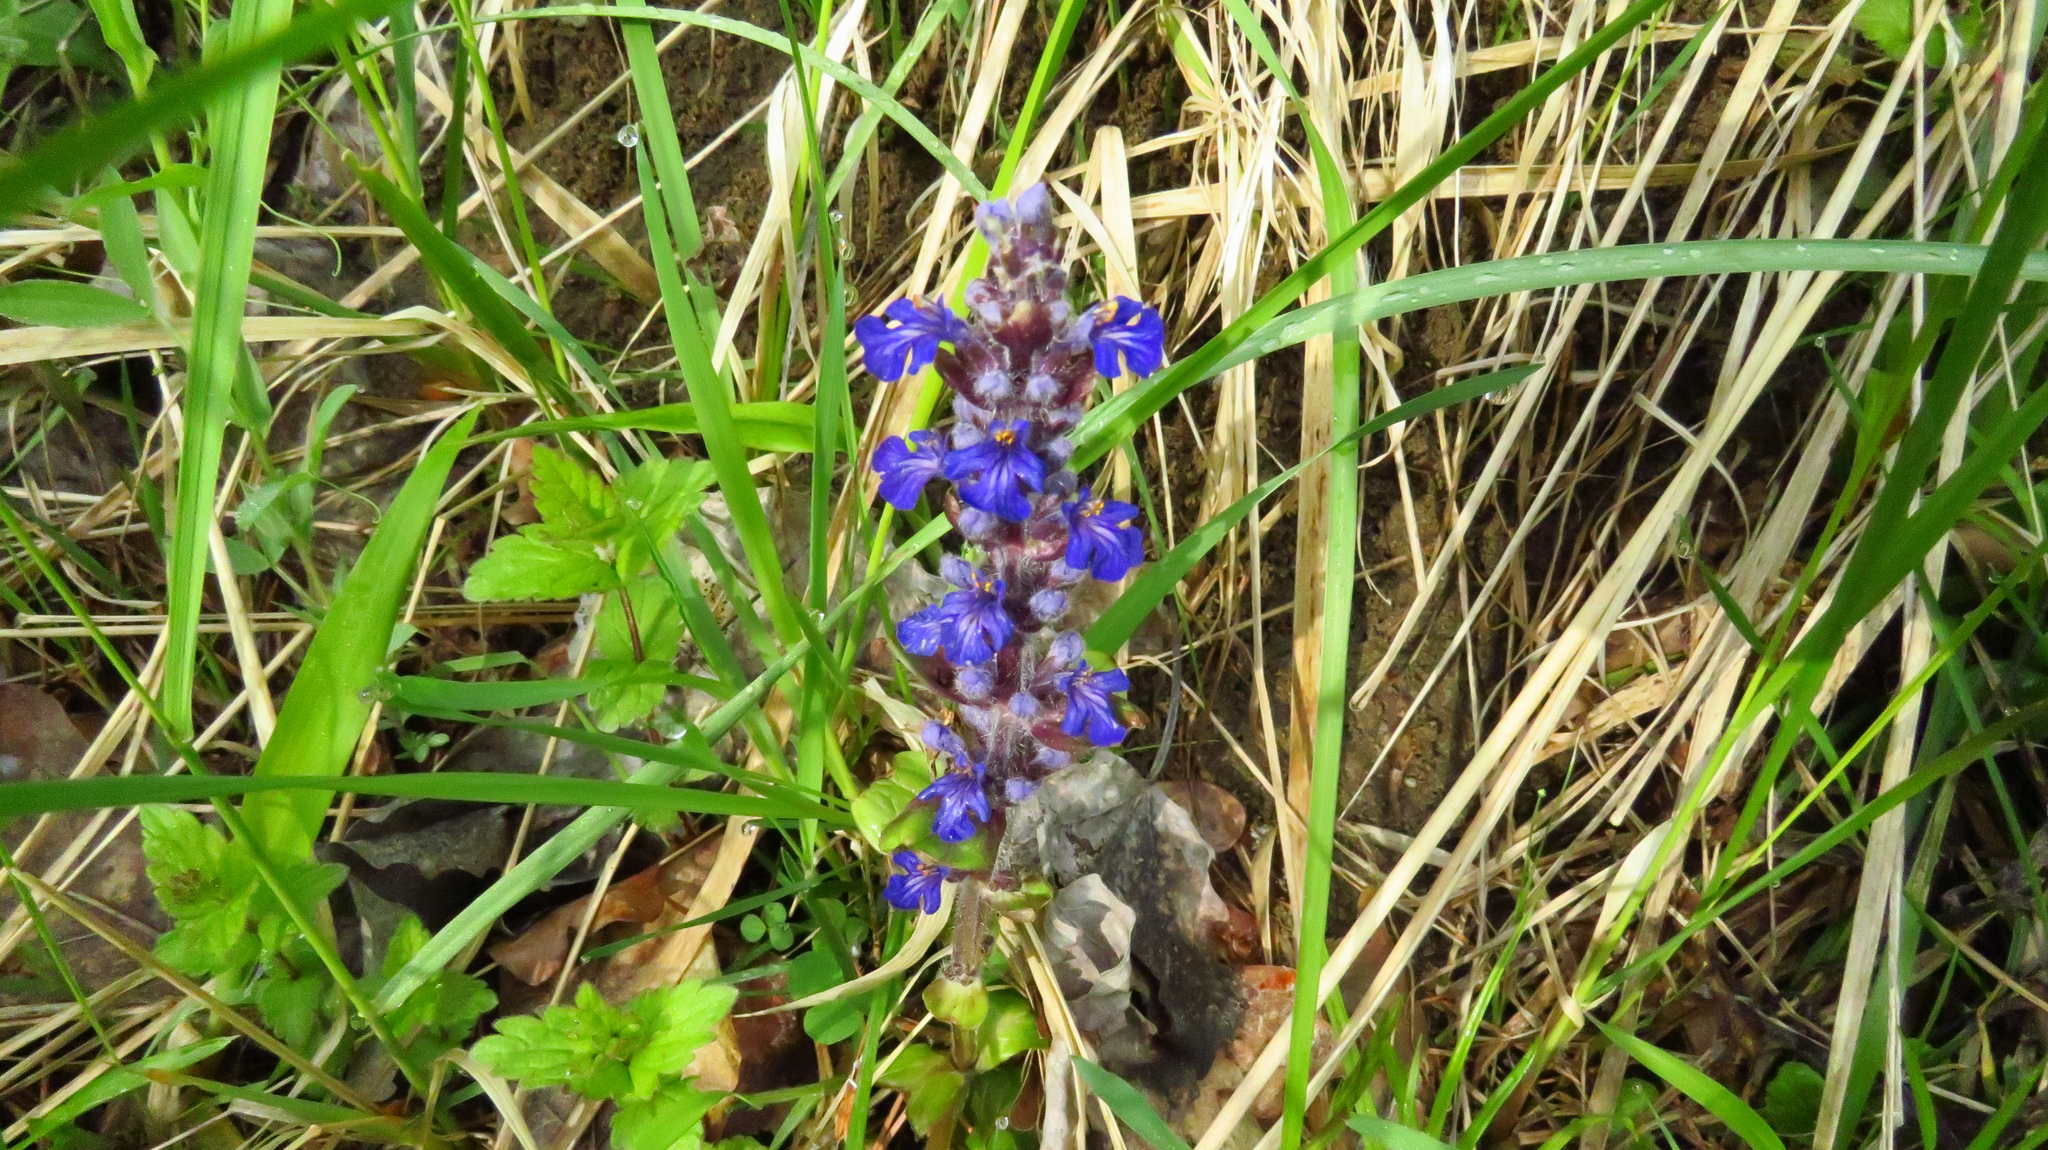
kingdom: Plantae
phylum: Tracheophyta
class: Magnoliopsida
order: Lamiales
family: Lamiaceae
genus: Ajuga
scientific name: Ajuga reptans
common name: Bugle
